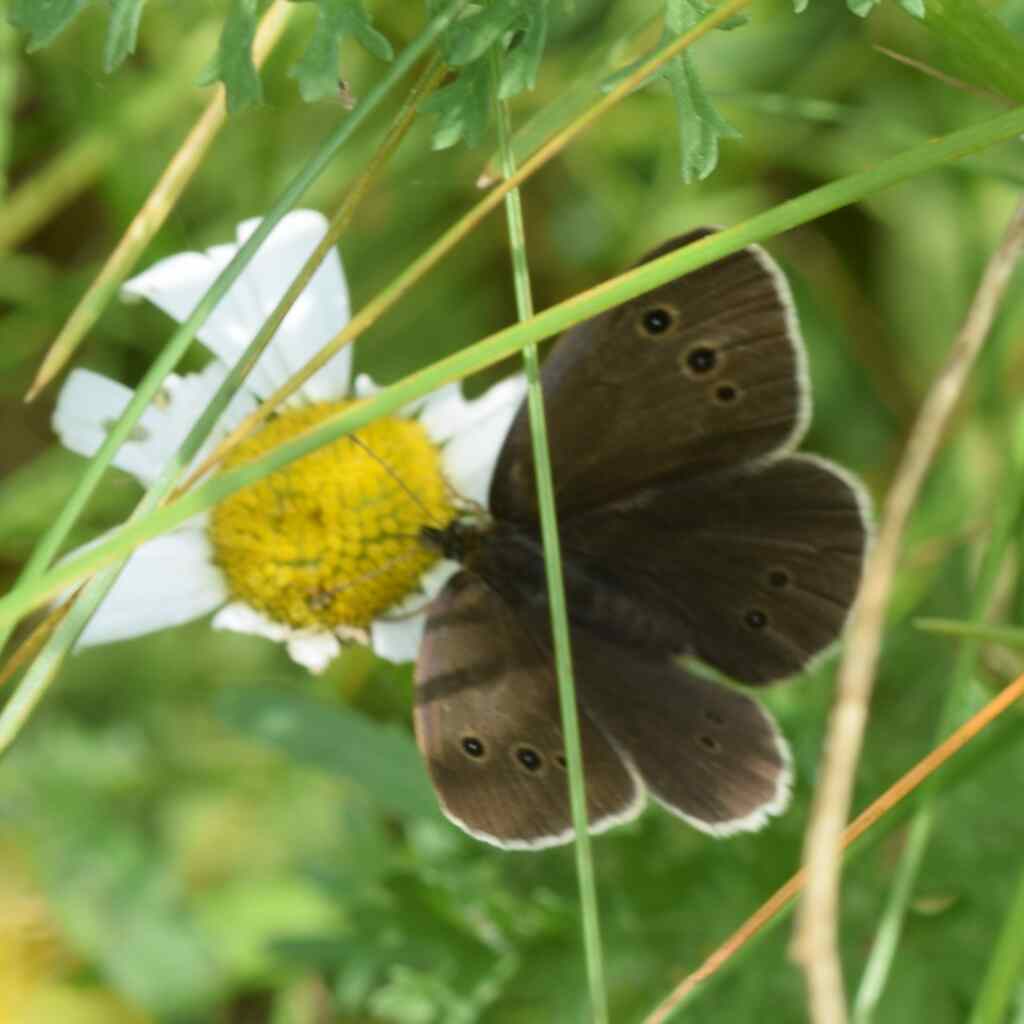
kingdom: Animalia
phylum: Arthropoda
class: Insecta
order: Lepidoptera
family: Nymphalidae
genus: Aphantopus
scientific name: Aphantopus hyperantus
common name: Ringlet
